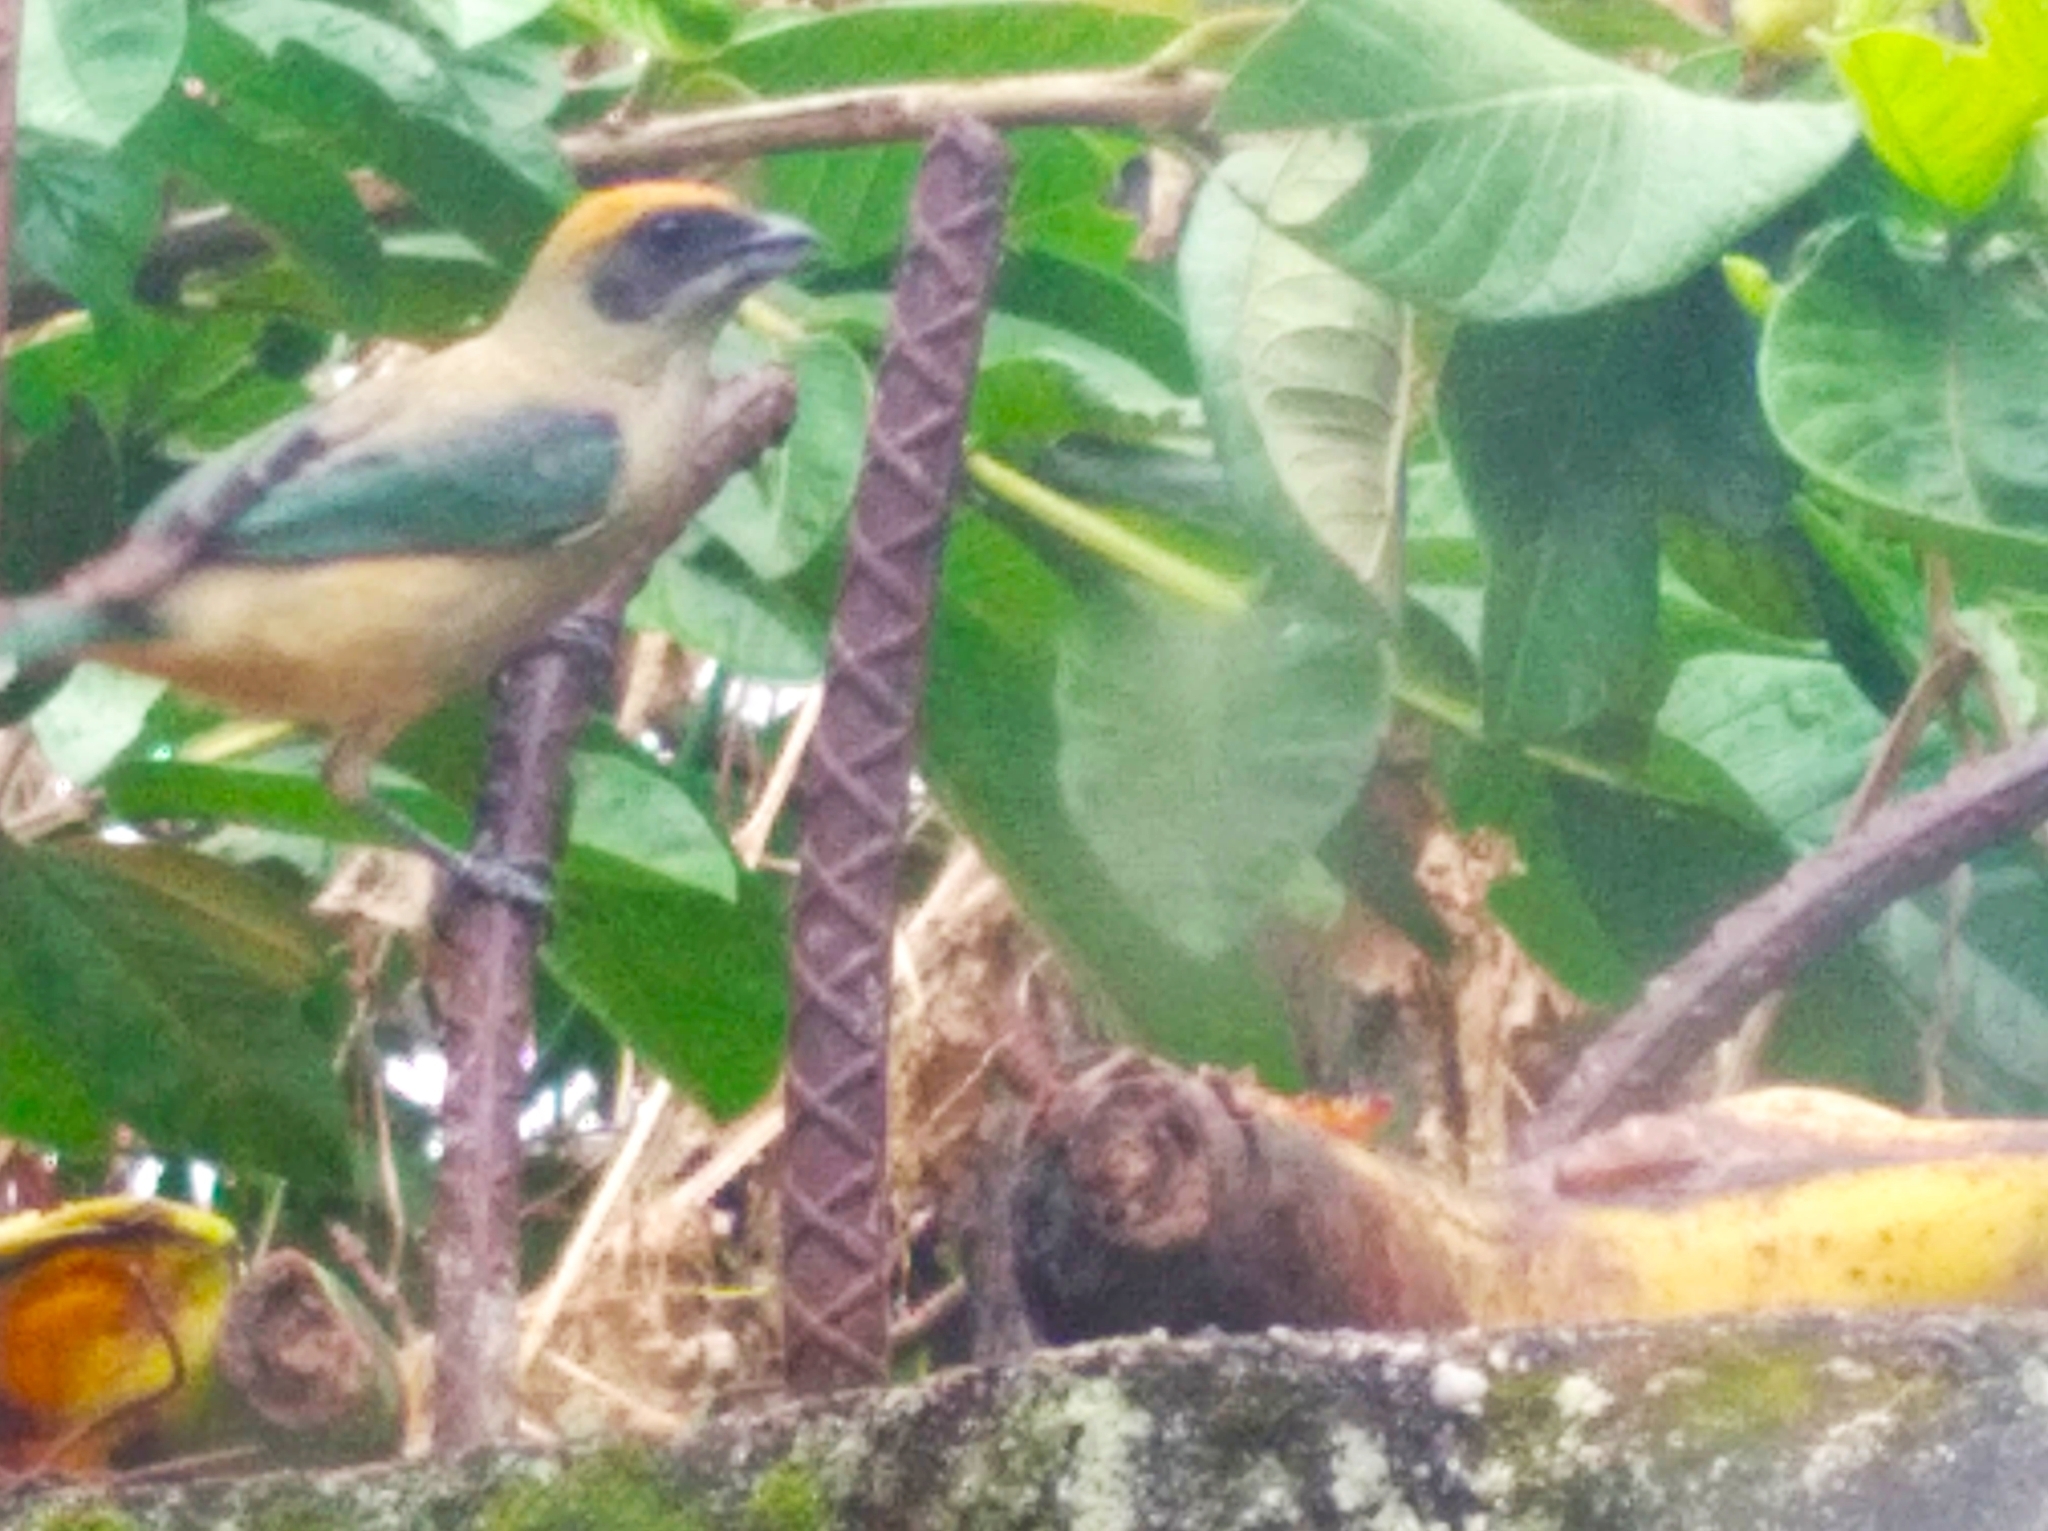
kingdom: Animalia
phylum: Chordata
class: Aves
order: Passeriformes
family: Thraupidae
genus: Stilpnia
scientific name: Stilpnia cayana
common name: Burnished-buff tanager
